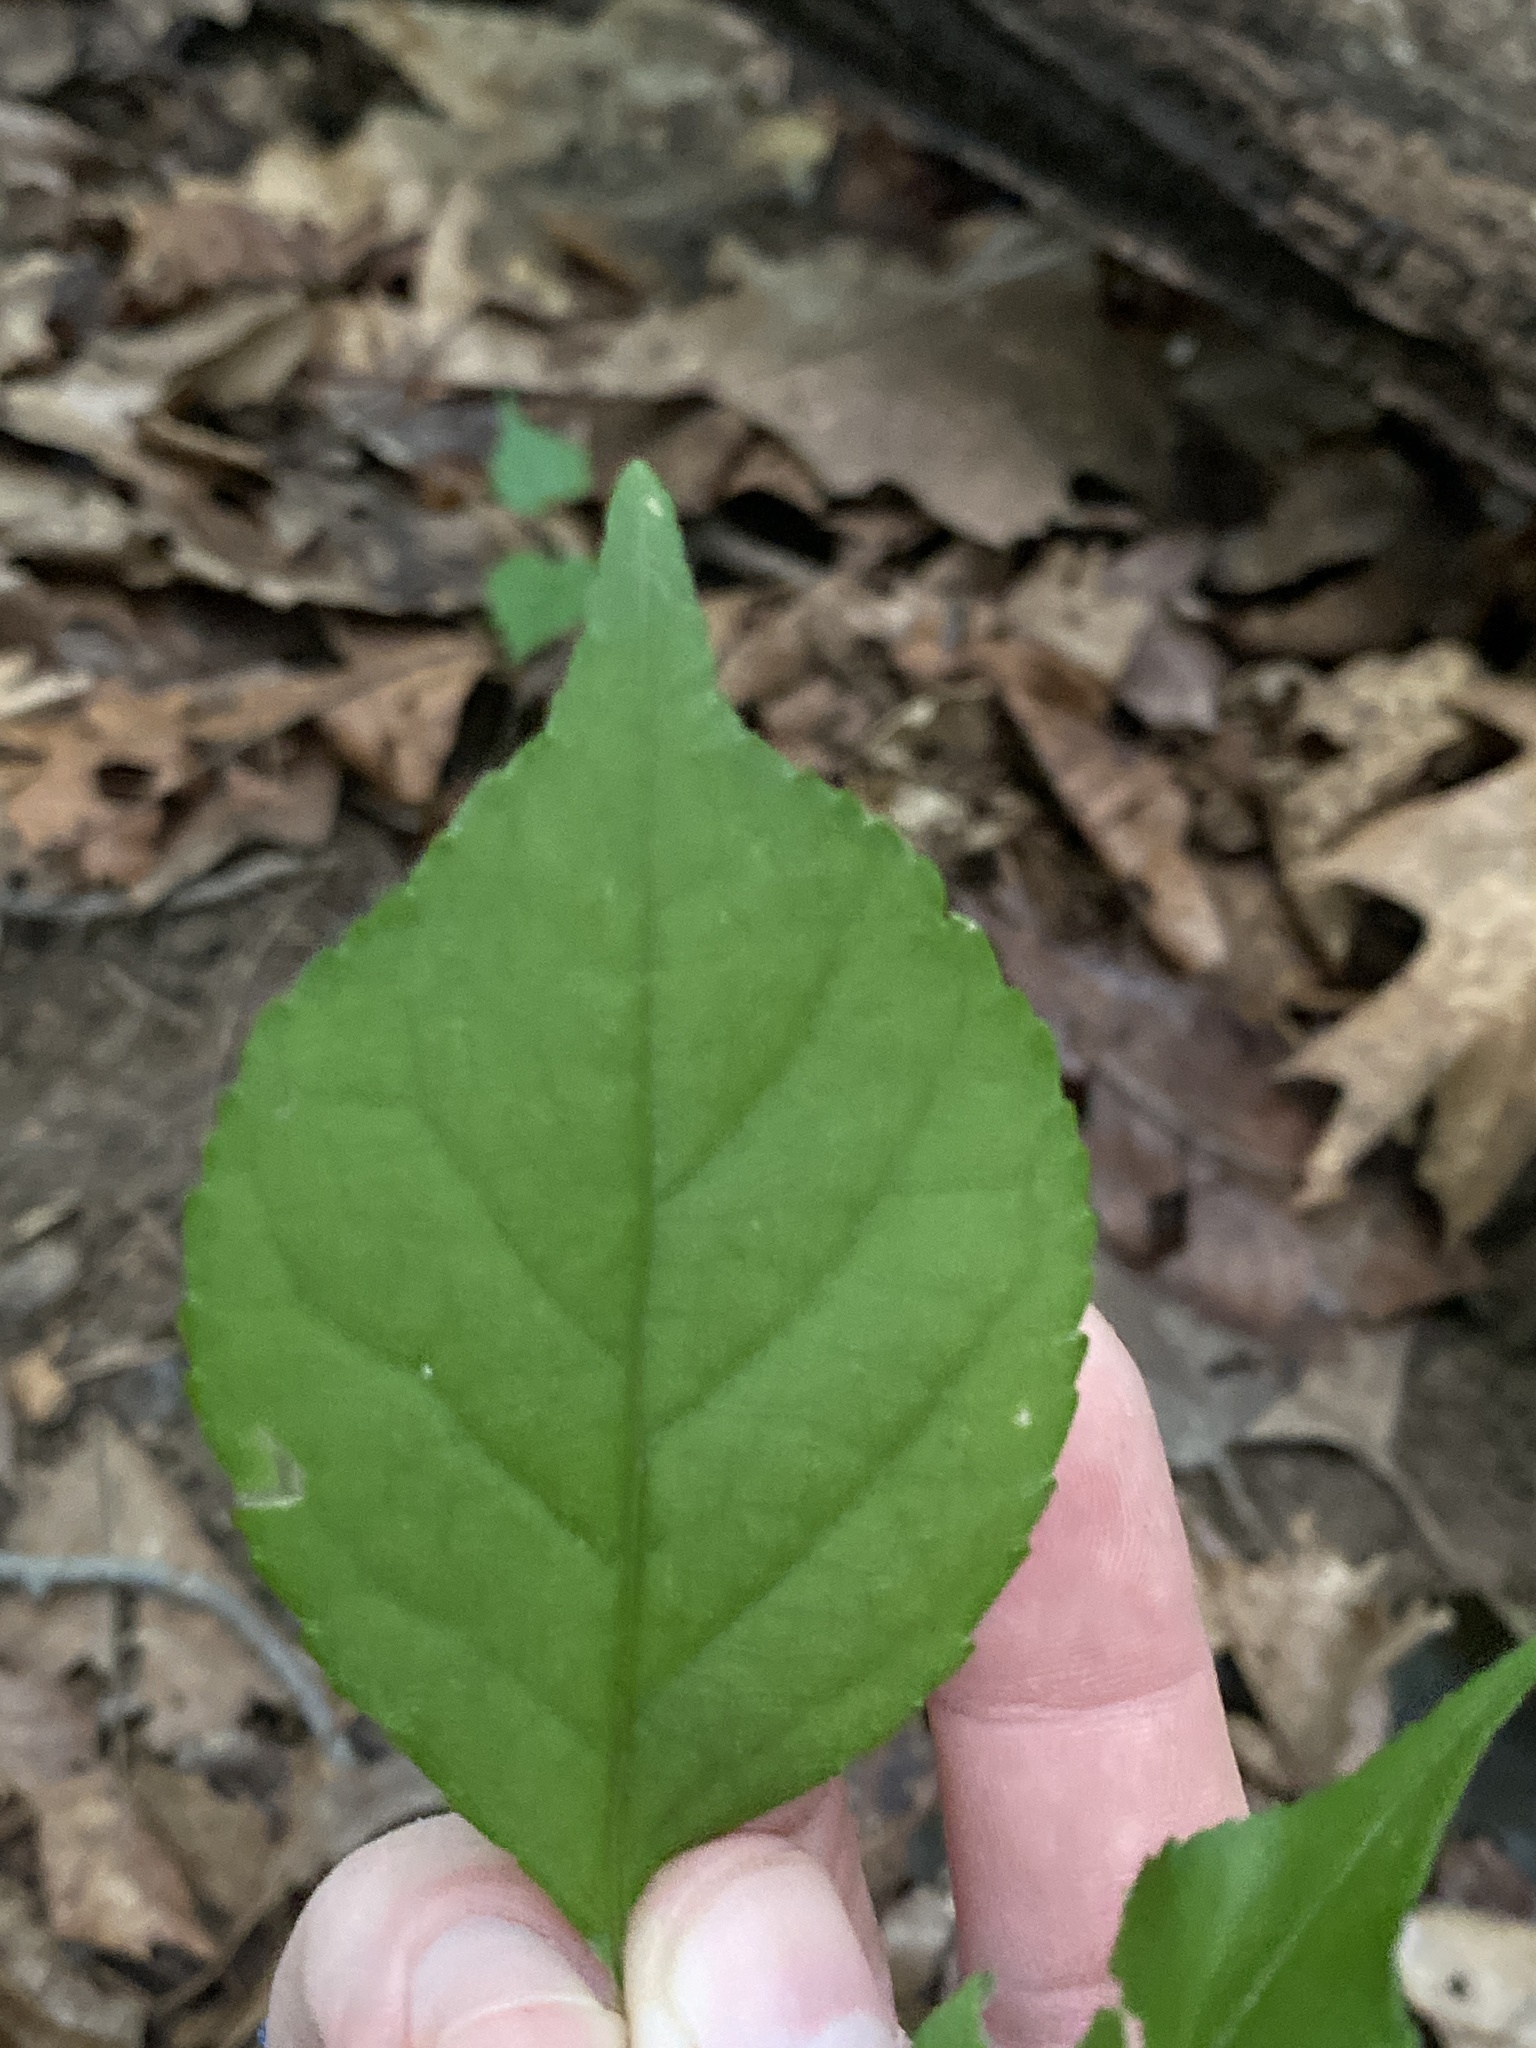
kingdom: Plantae
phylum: Tracheophyta
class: Magnoliopsida
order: Celastrales
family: Celastraceae
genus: Celastrus
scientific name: Celastrus orbiculatus
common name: Oriental bittersweet
